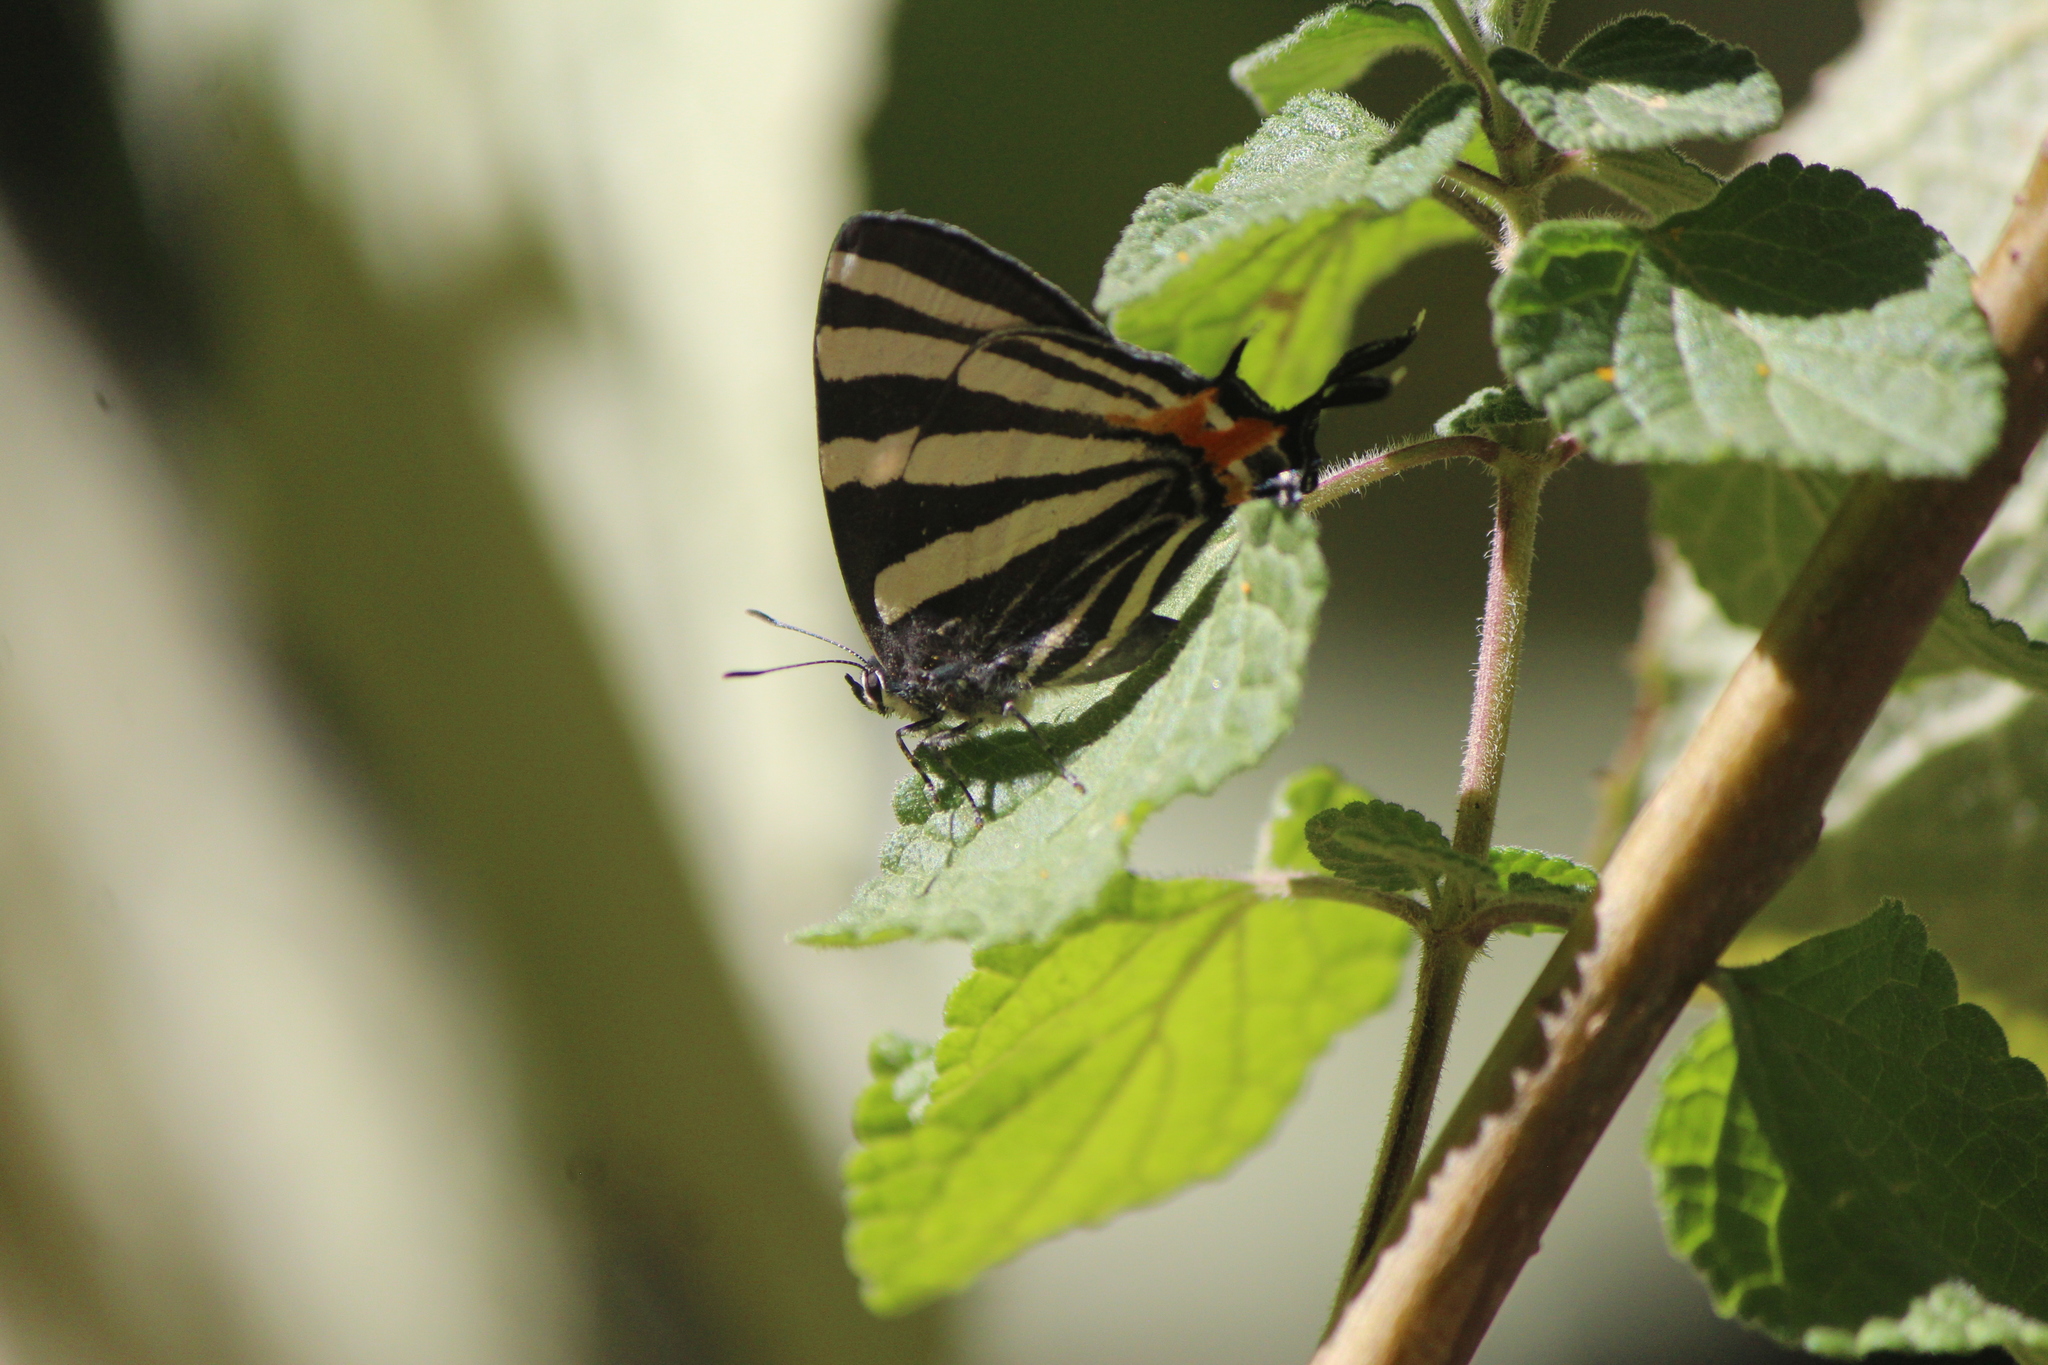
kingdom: Animalia
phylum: Arthropoda
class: Insecta
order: Lepidoptera
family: Lycaenidae
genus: Laothus
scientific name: Laothus
